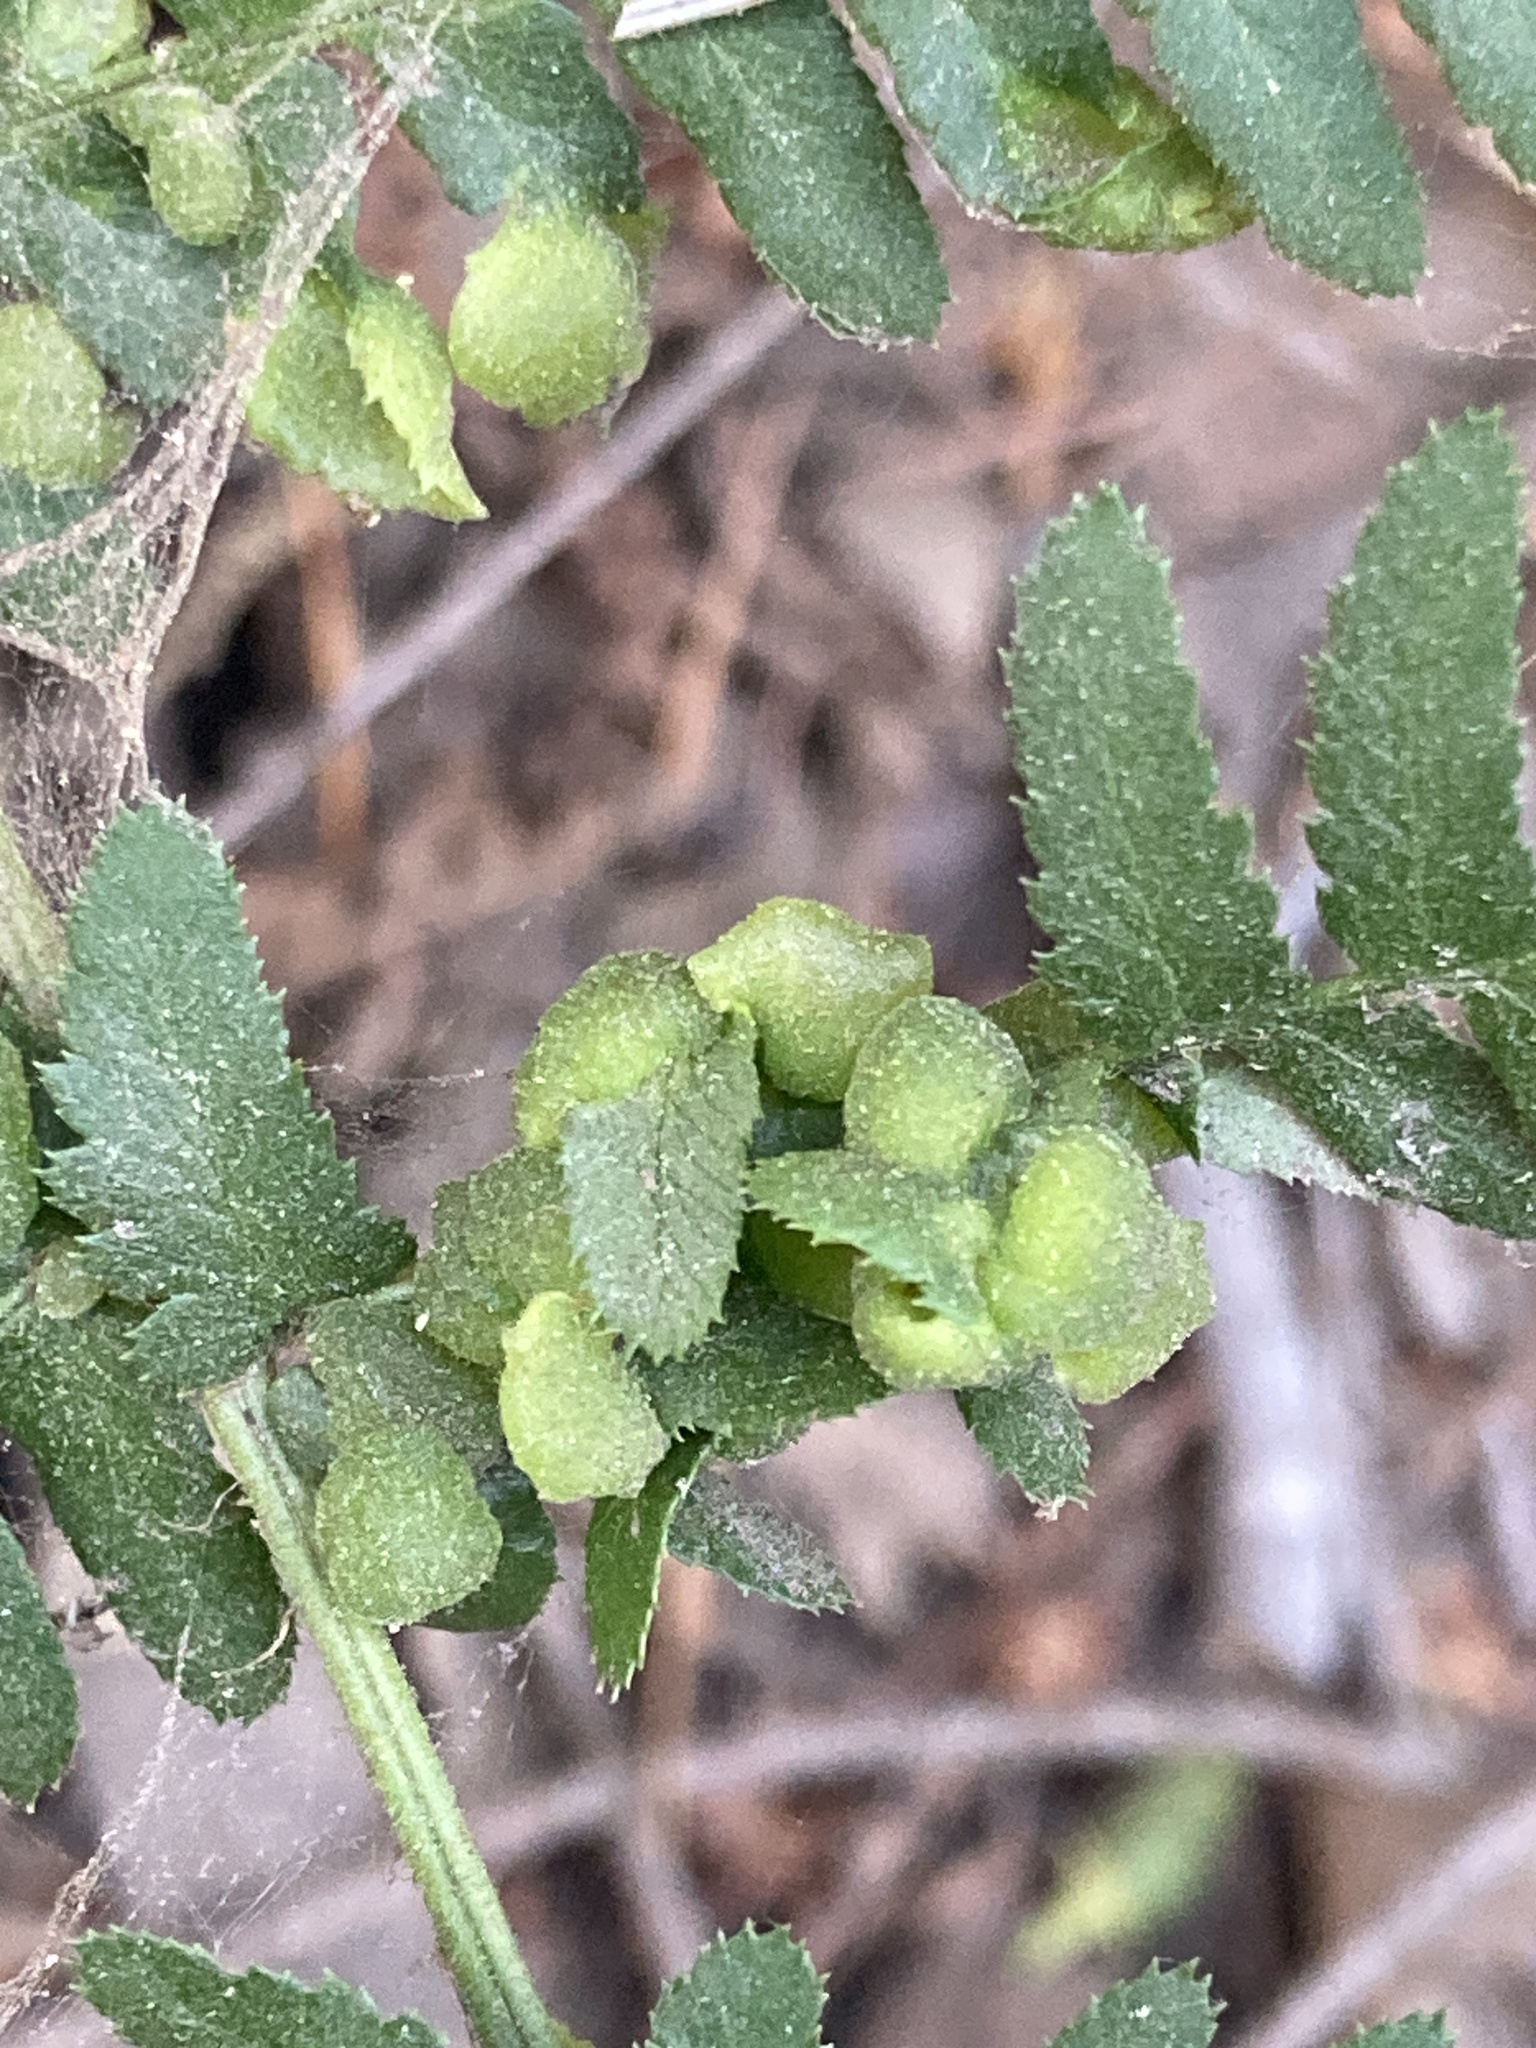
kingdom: Fungi
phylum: Ascomycota
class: Taphrinomycetes
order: Taphrinales
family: Taphrinaceae
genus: Taphrina
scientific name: Taphrina californica
